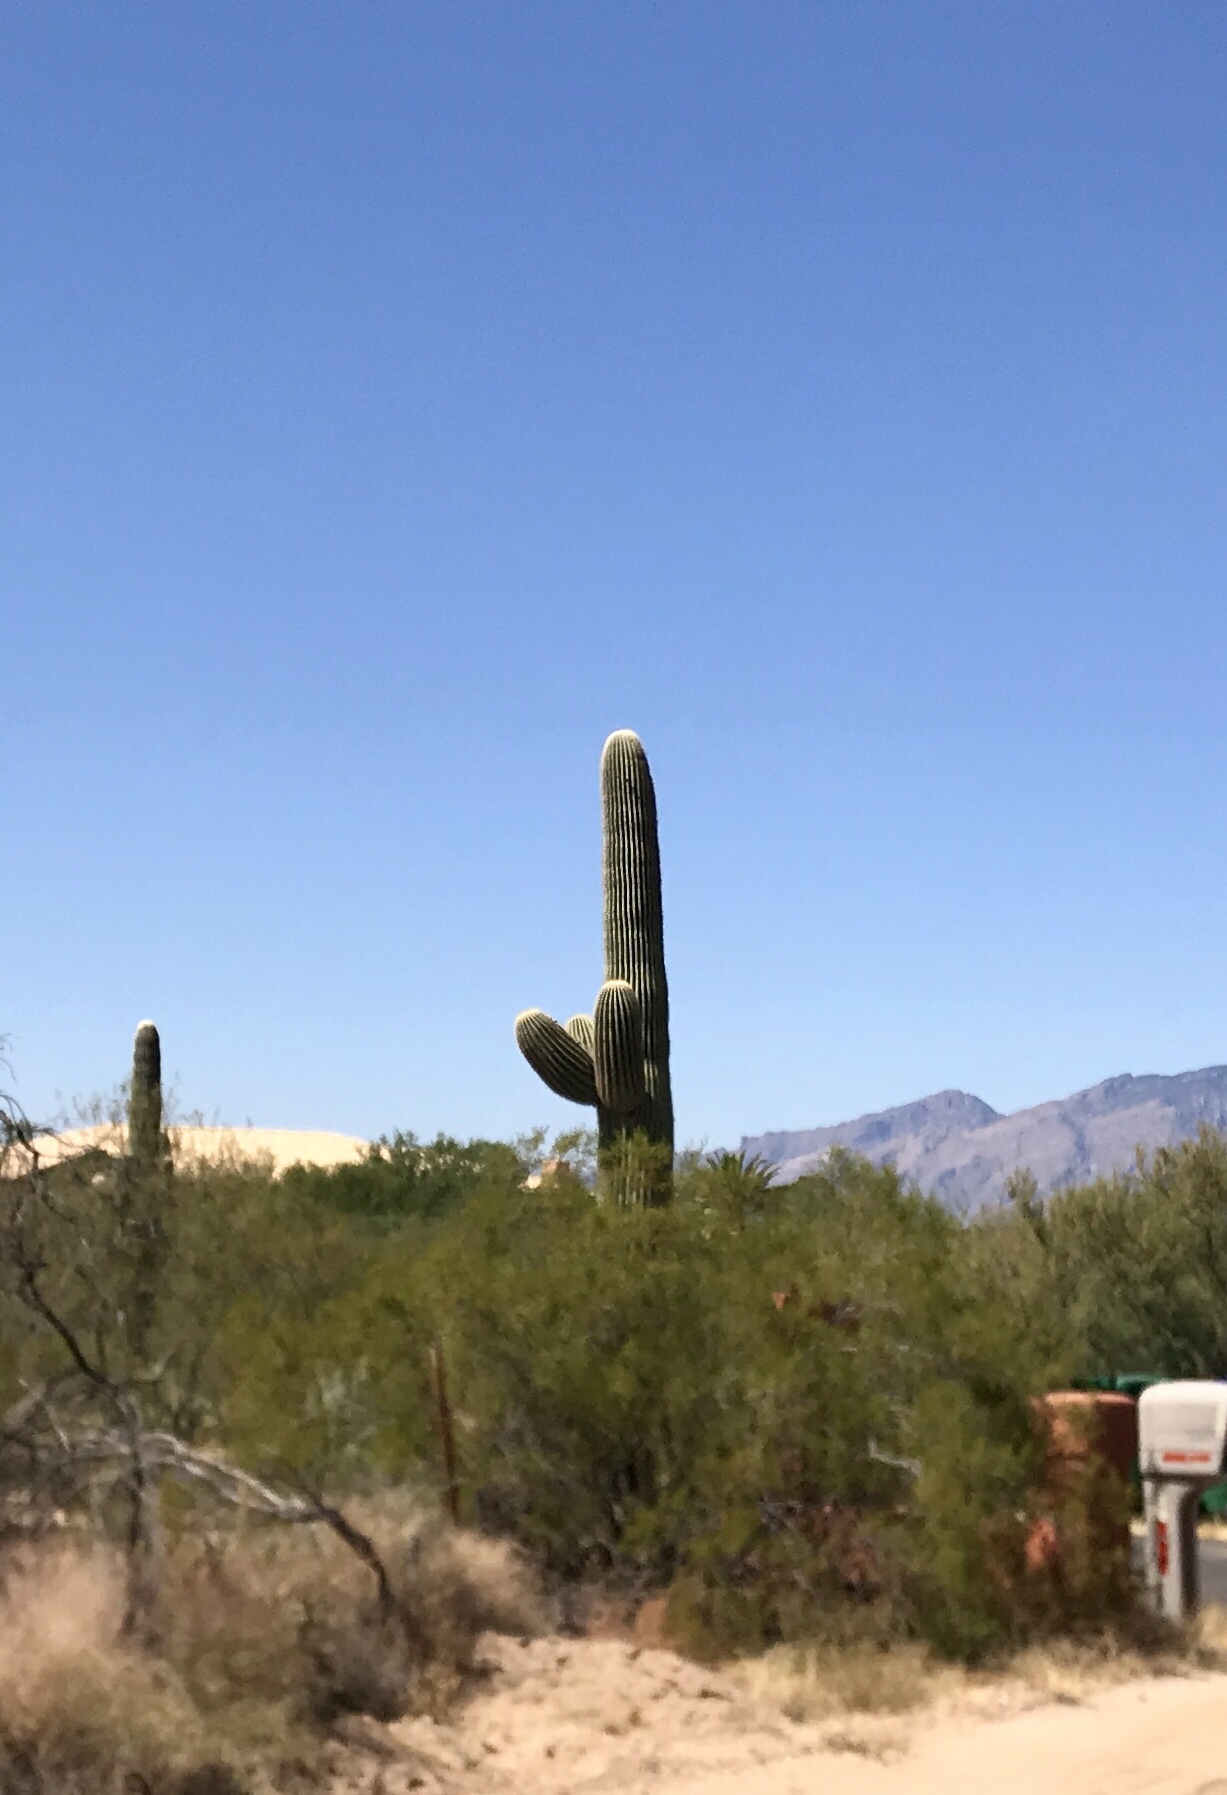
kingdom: Plantae
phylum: Tracheophyta
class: Magnoliopsida
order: Caryophyllales
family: Cactaceae
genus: Carnegiea
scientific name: Carnegiea gigantea
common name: Saguaro
